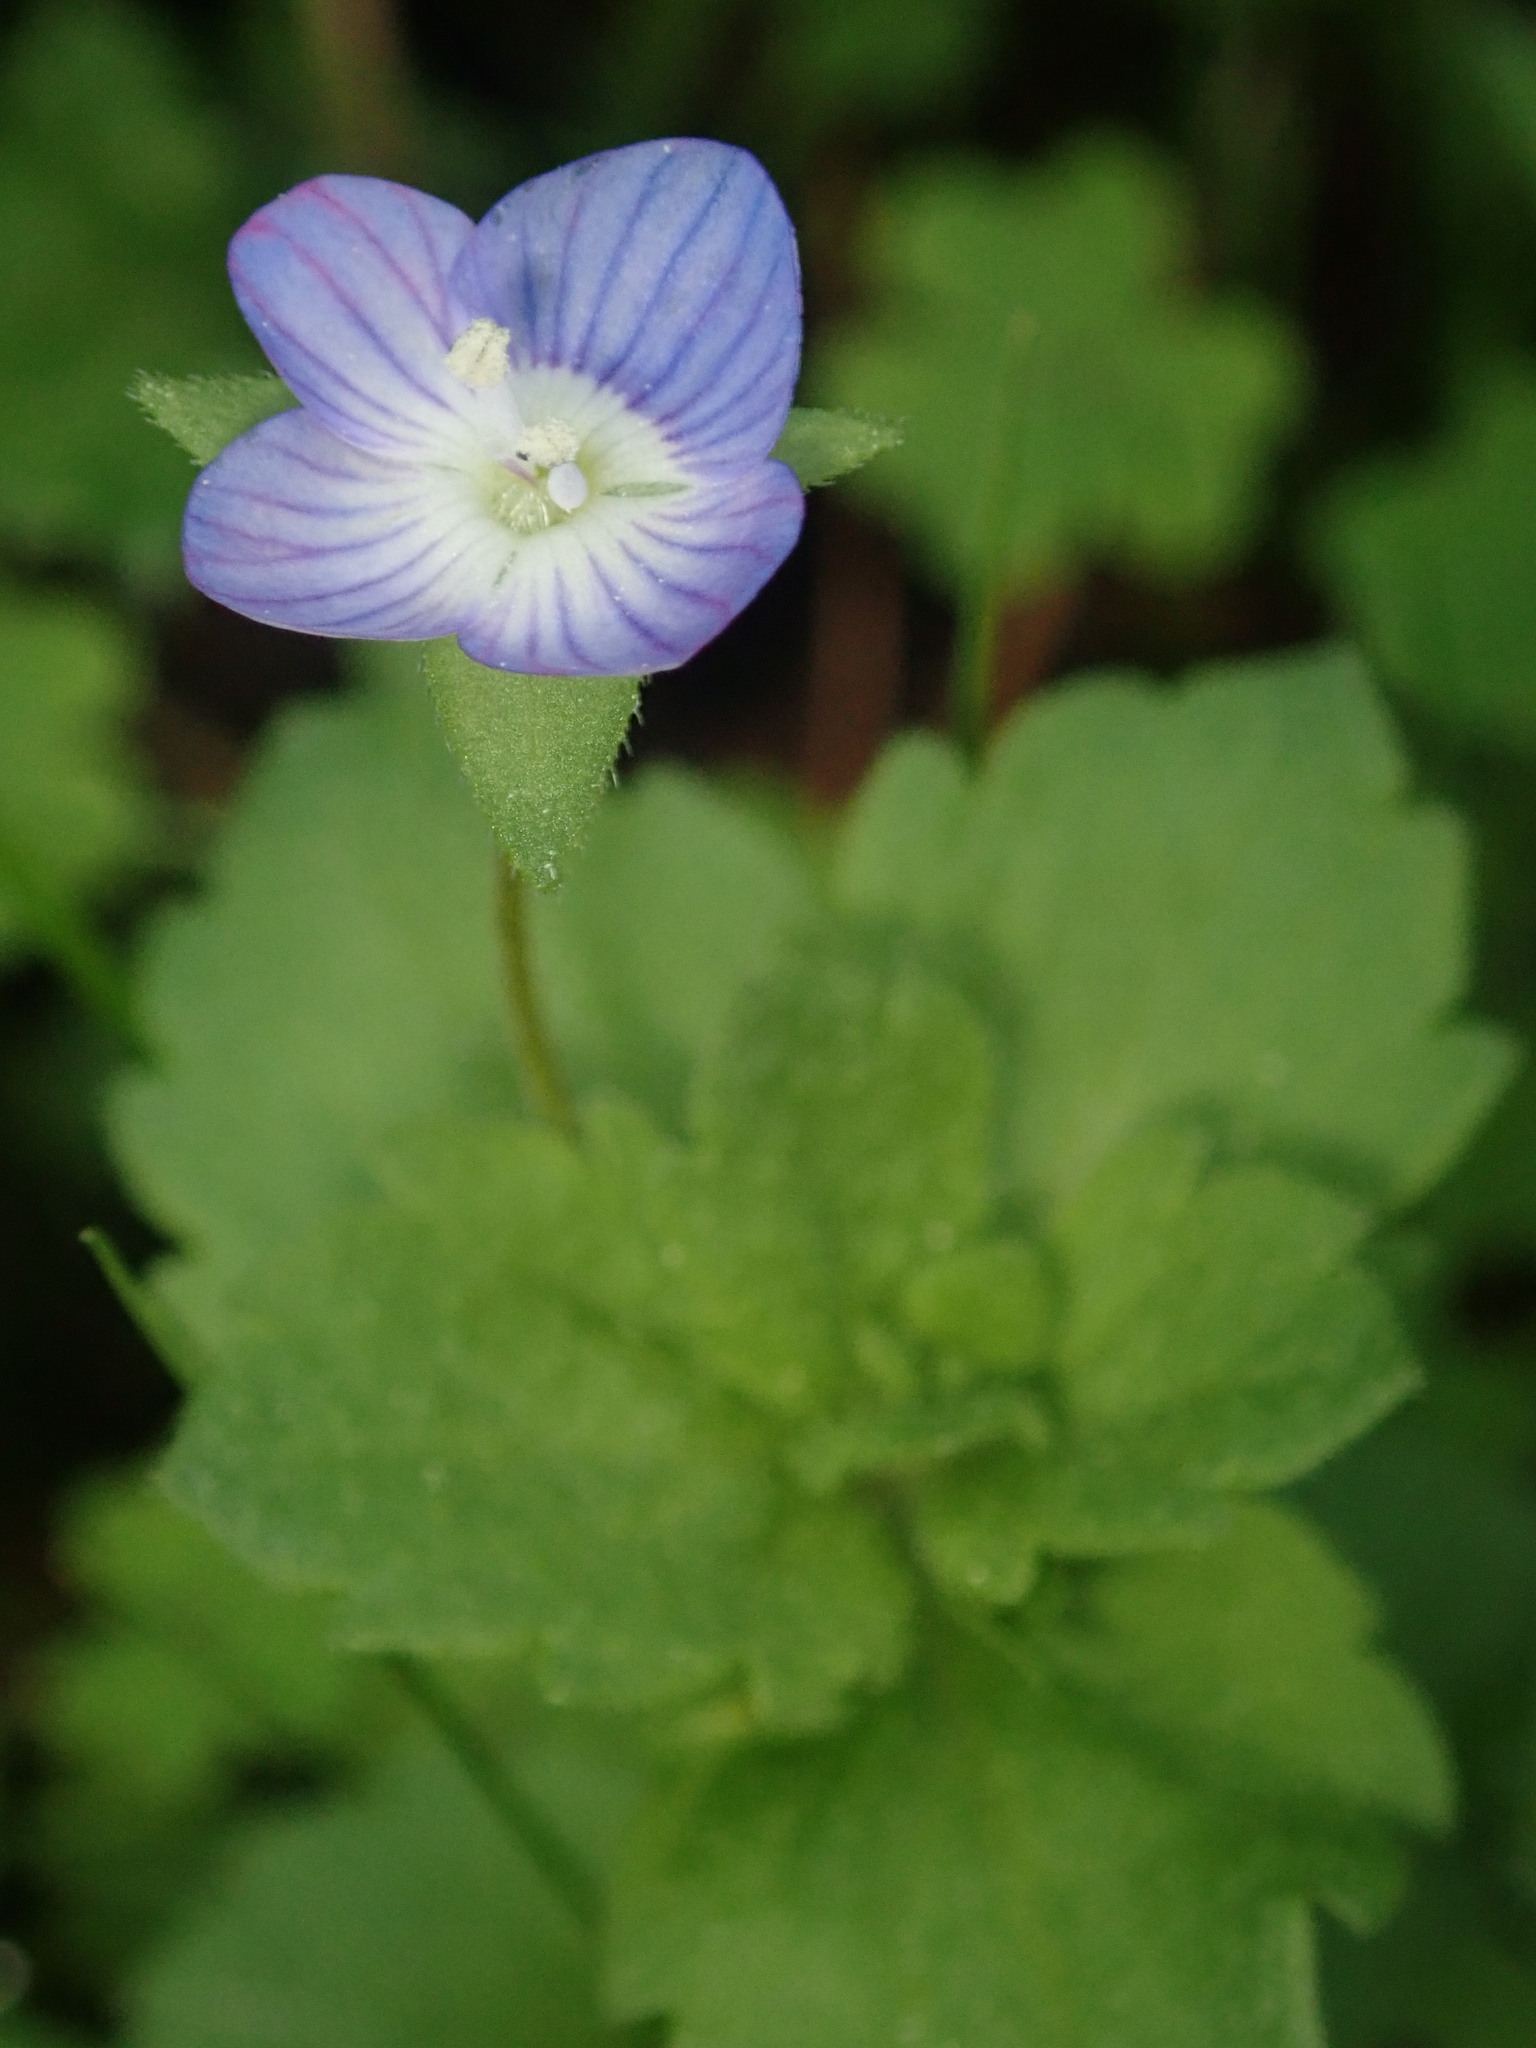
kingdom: Plantae
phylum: Tracheophyta
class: Magnoliopsida
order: Lamiales
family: Plantaginaceae
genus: Veronica
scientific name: Veronica persica
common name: Common field-speedwell
